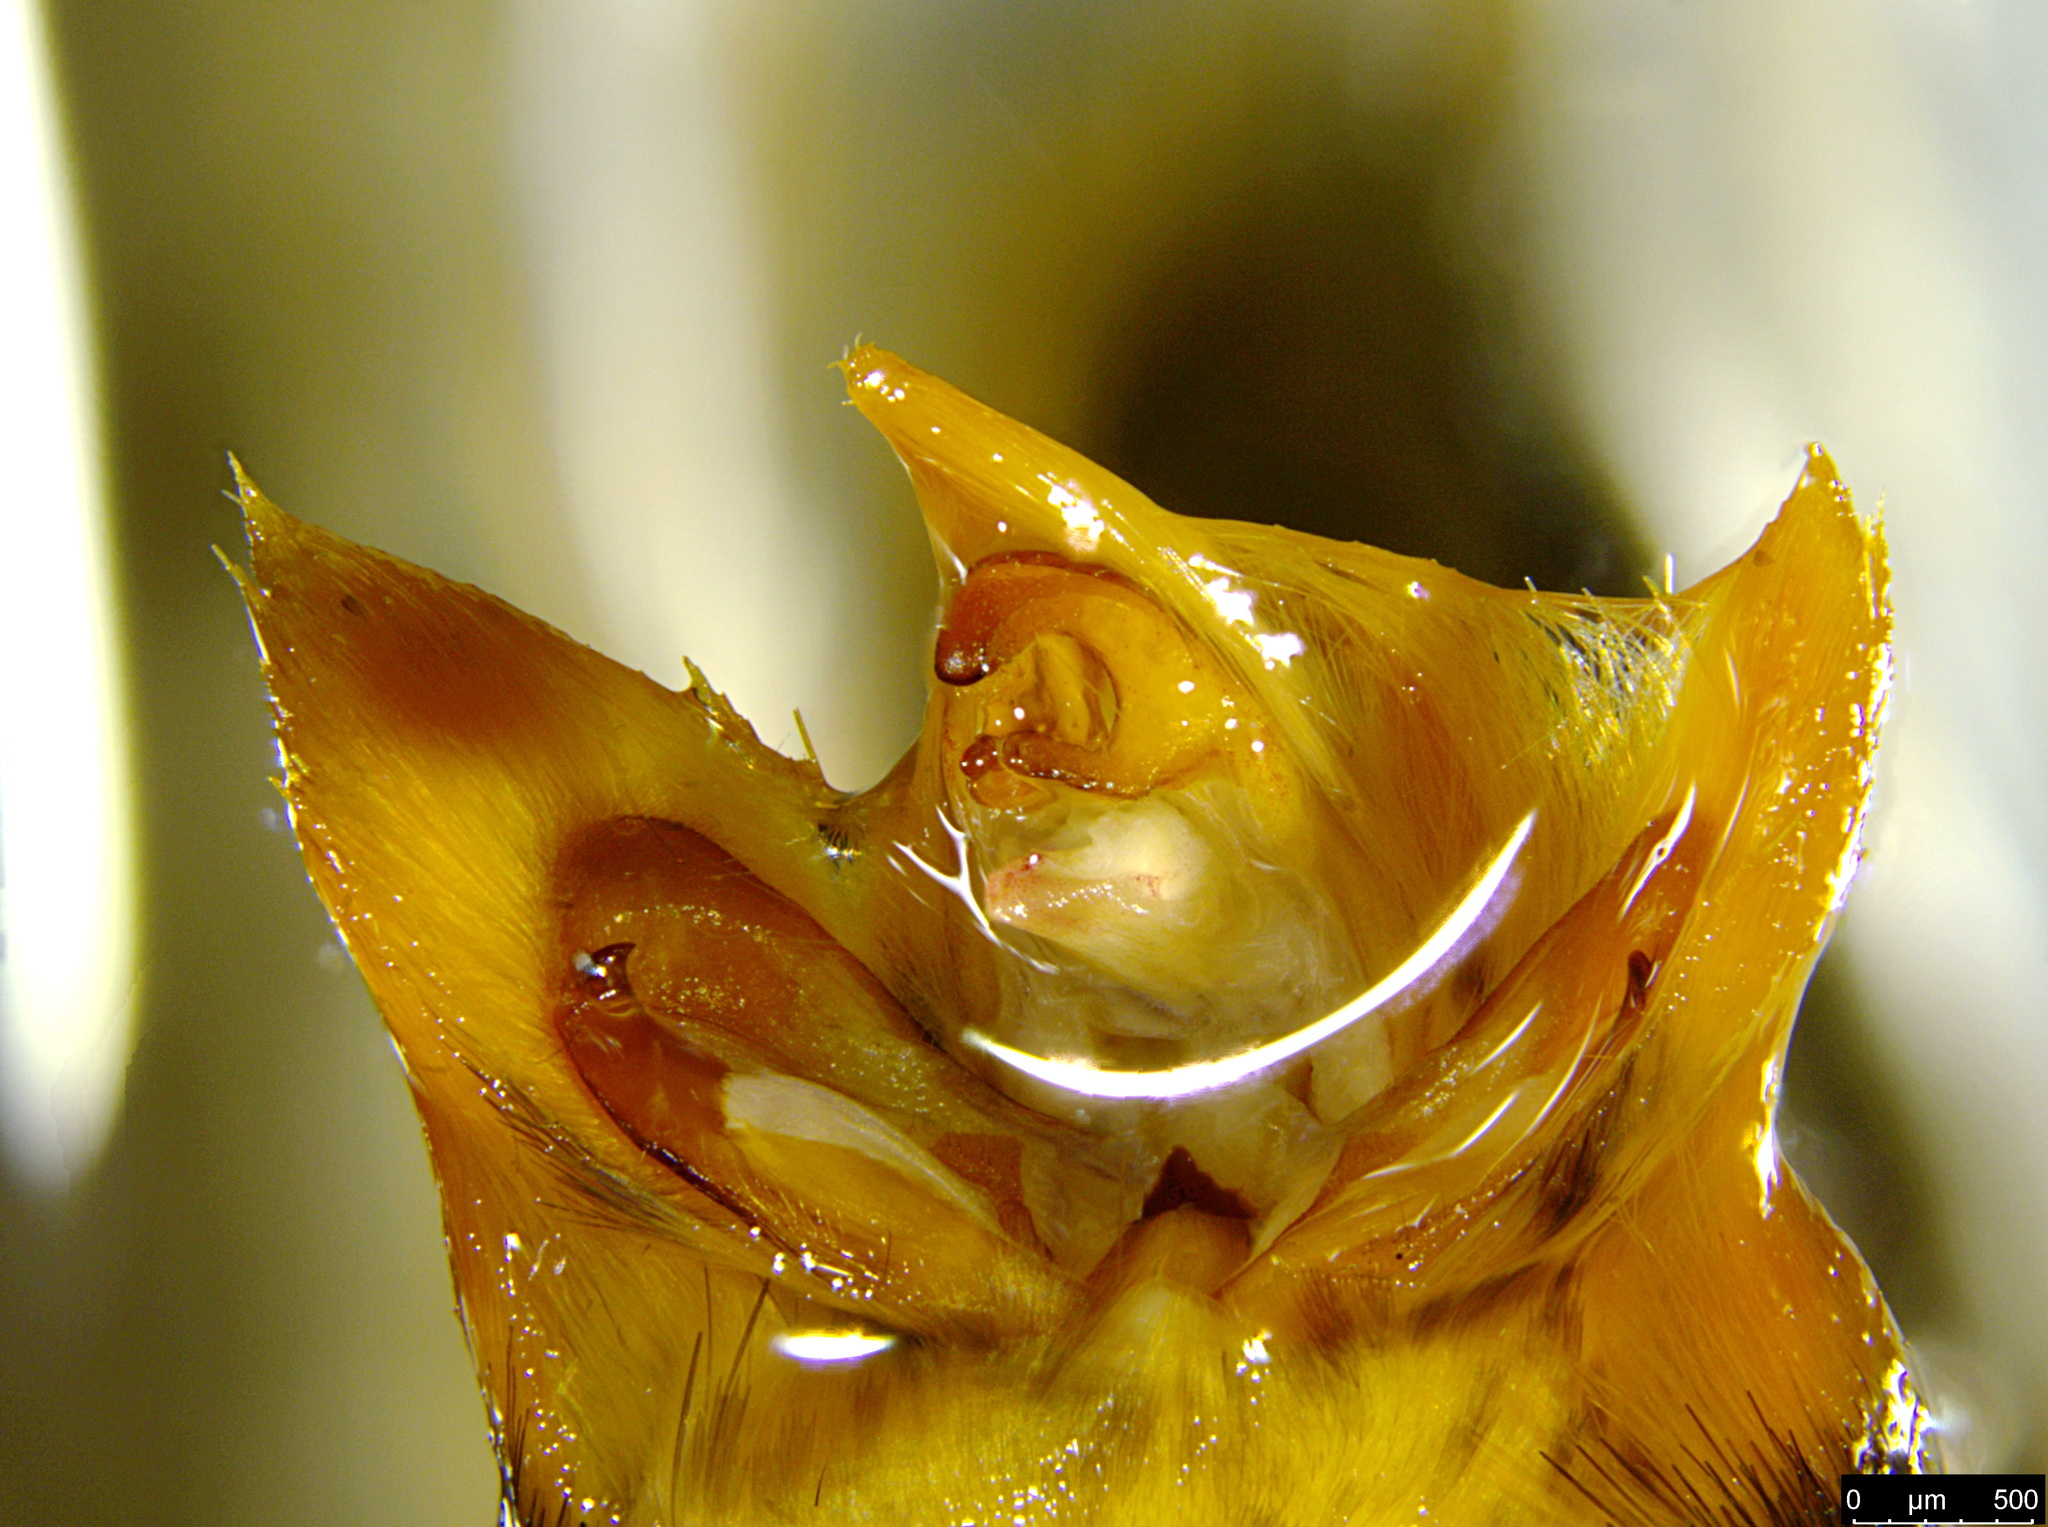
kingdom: Animalia
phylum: Arthropoda
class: Insecta
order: Lepidoptera
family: Oenosandridae
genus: Oenosandra
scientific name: Oenosandra boisduvalii
